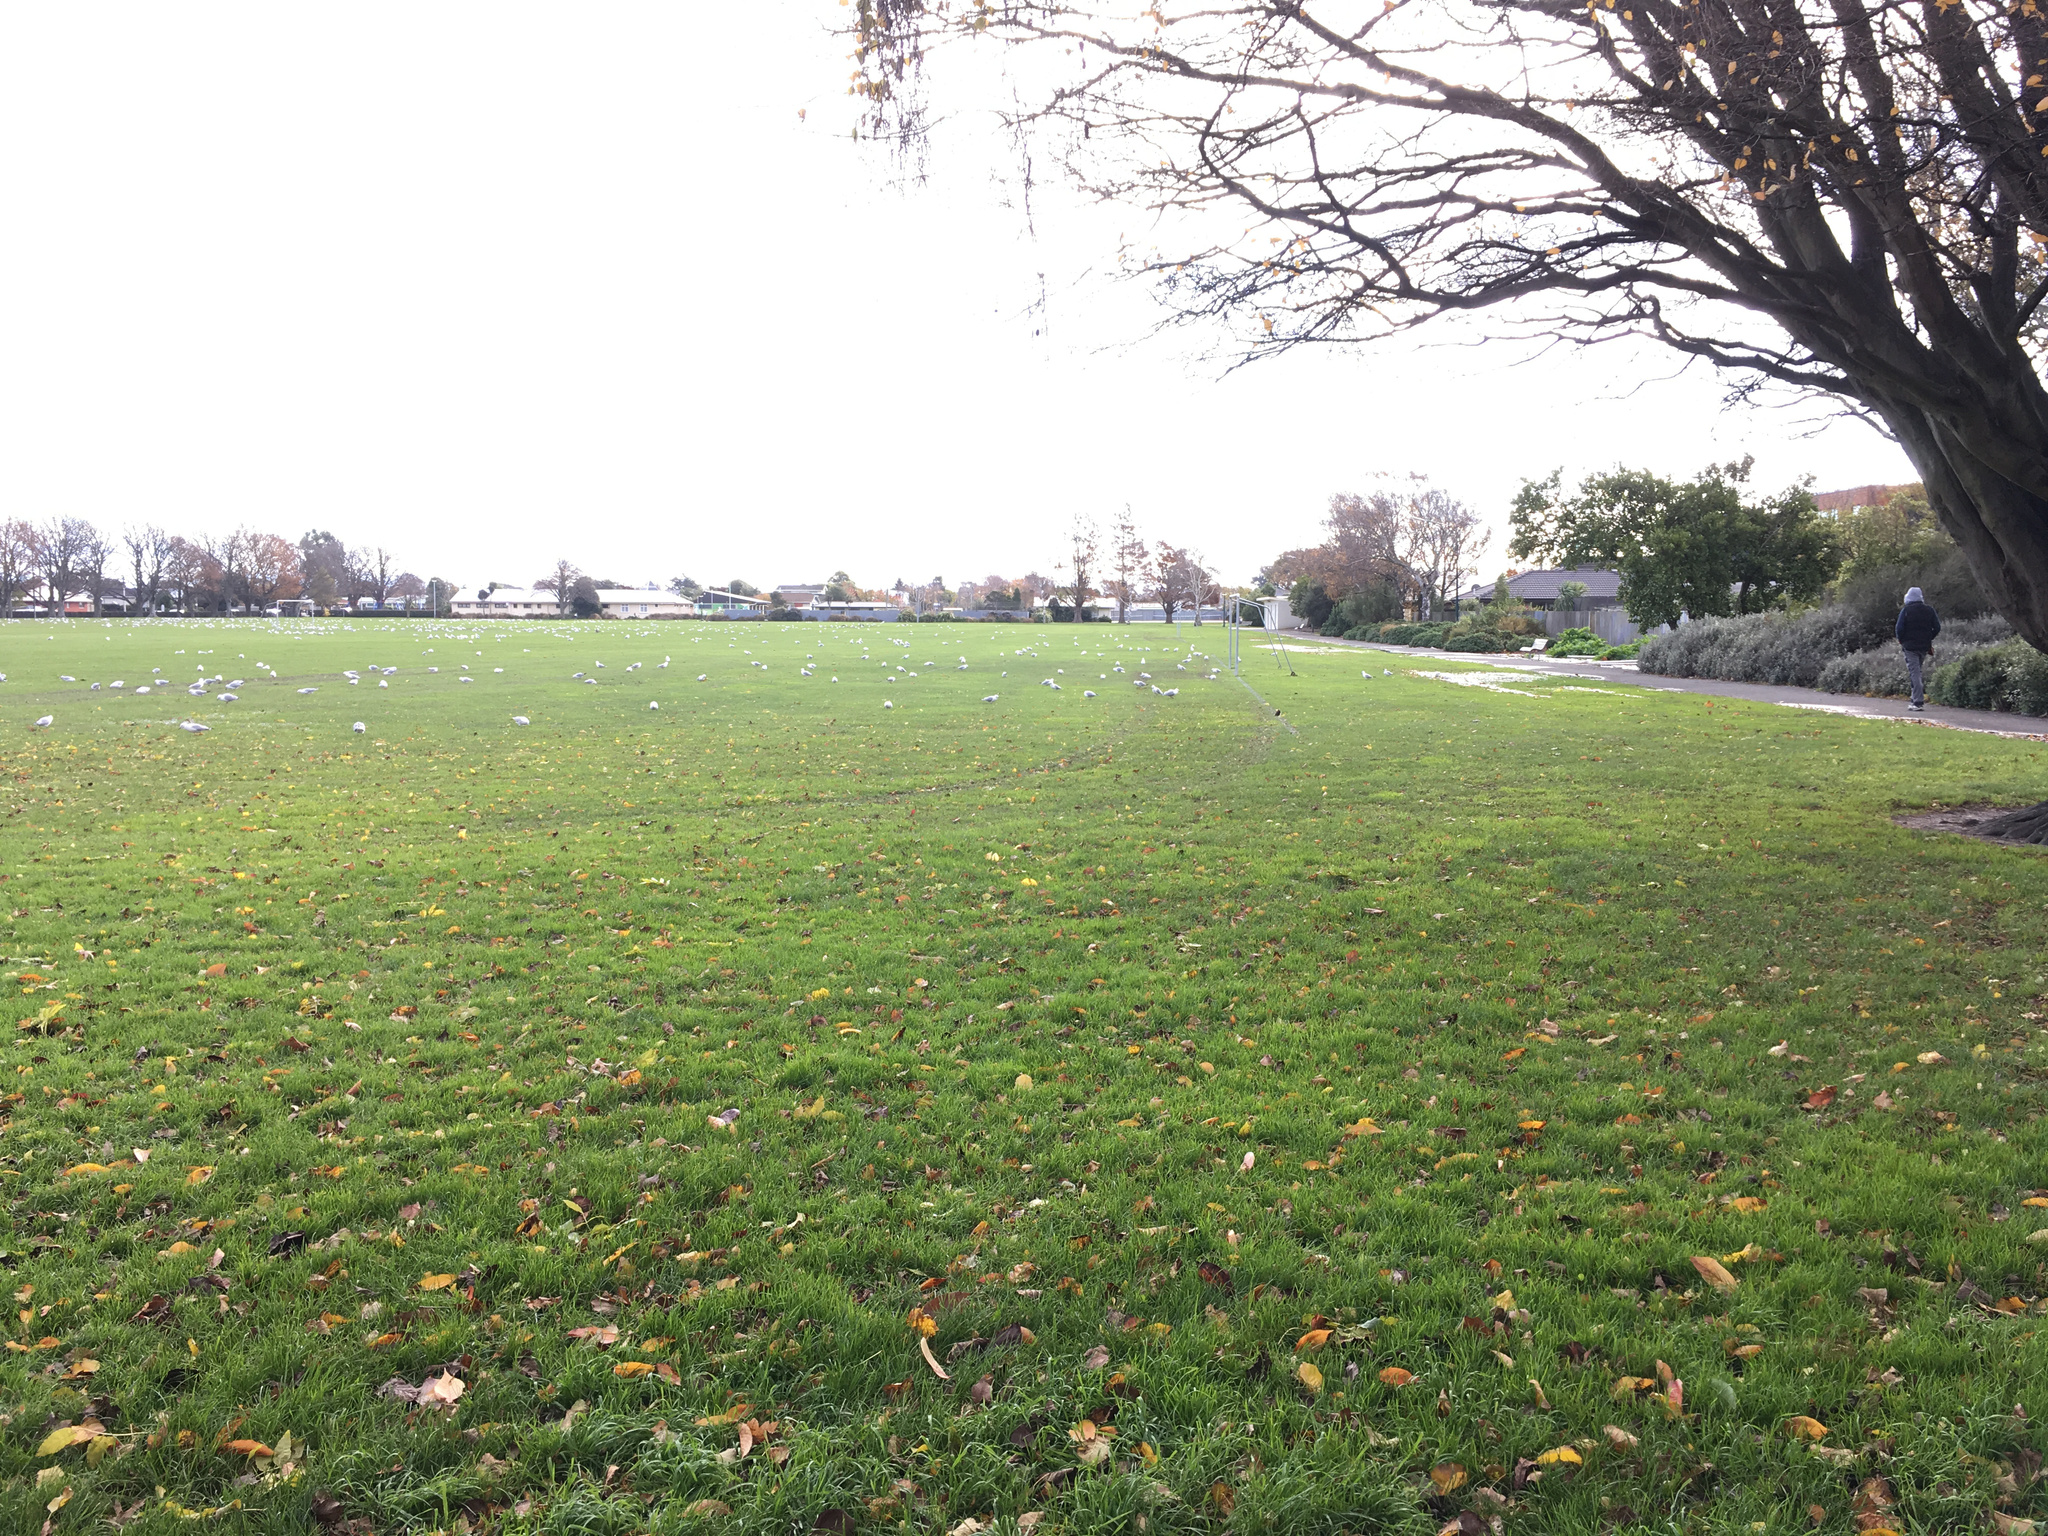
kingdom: Animalia
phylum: Chordata
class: Aves
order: Charadriiformes
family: Laridae
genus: Chroicocephalus
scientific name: Chroicocephalus novaehollandiae
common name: Silver gull
